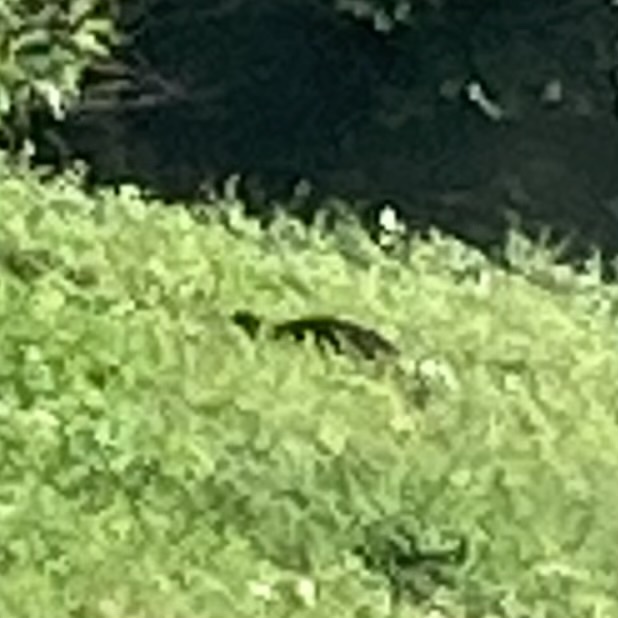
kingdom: Animalia
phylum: Chordata
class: Testudines
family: Trionychidae
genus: Apalone
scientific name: Apalone ferox
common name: Florida softshell turtle
